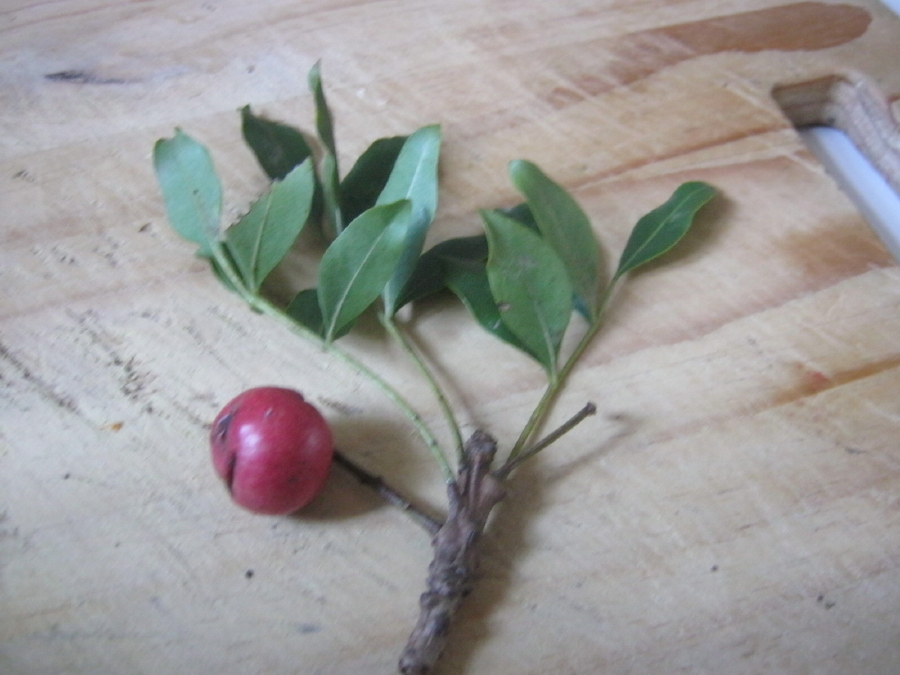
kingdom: Plantae
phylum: Tracheophyta
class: Magnoliopsida
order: Sapindales
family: Meliaceae
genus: Ekebergia
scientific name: Ekebergia capensis
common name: Cape-ash
